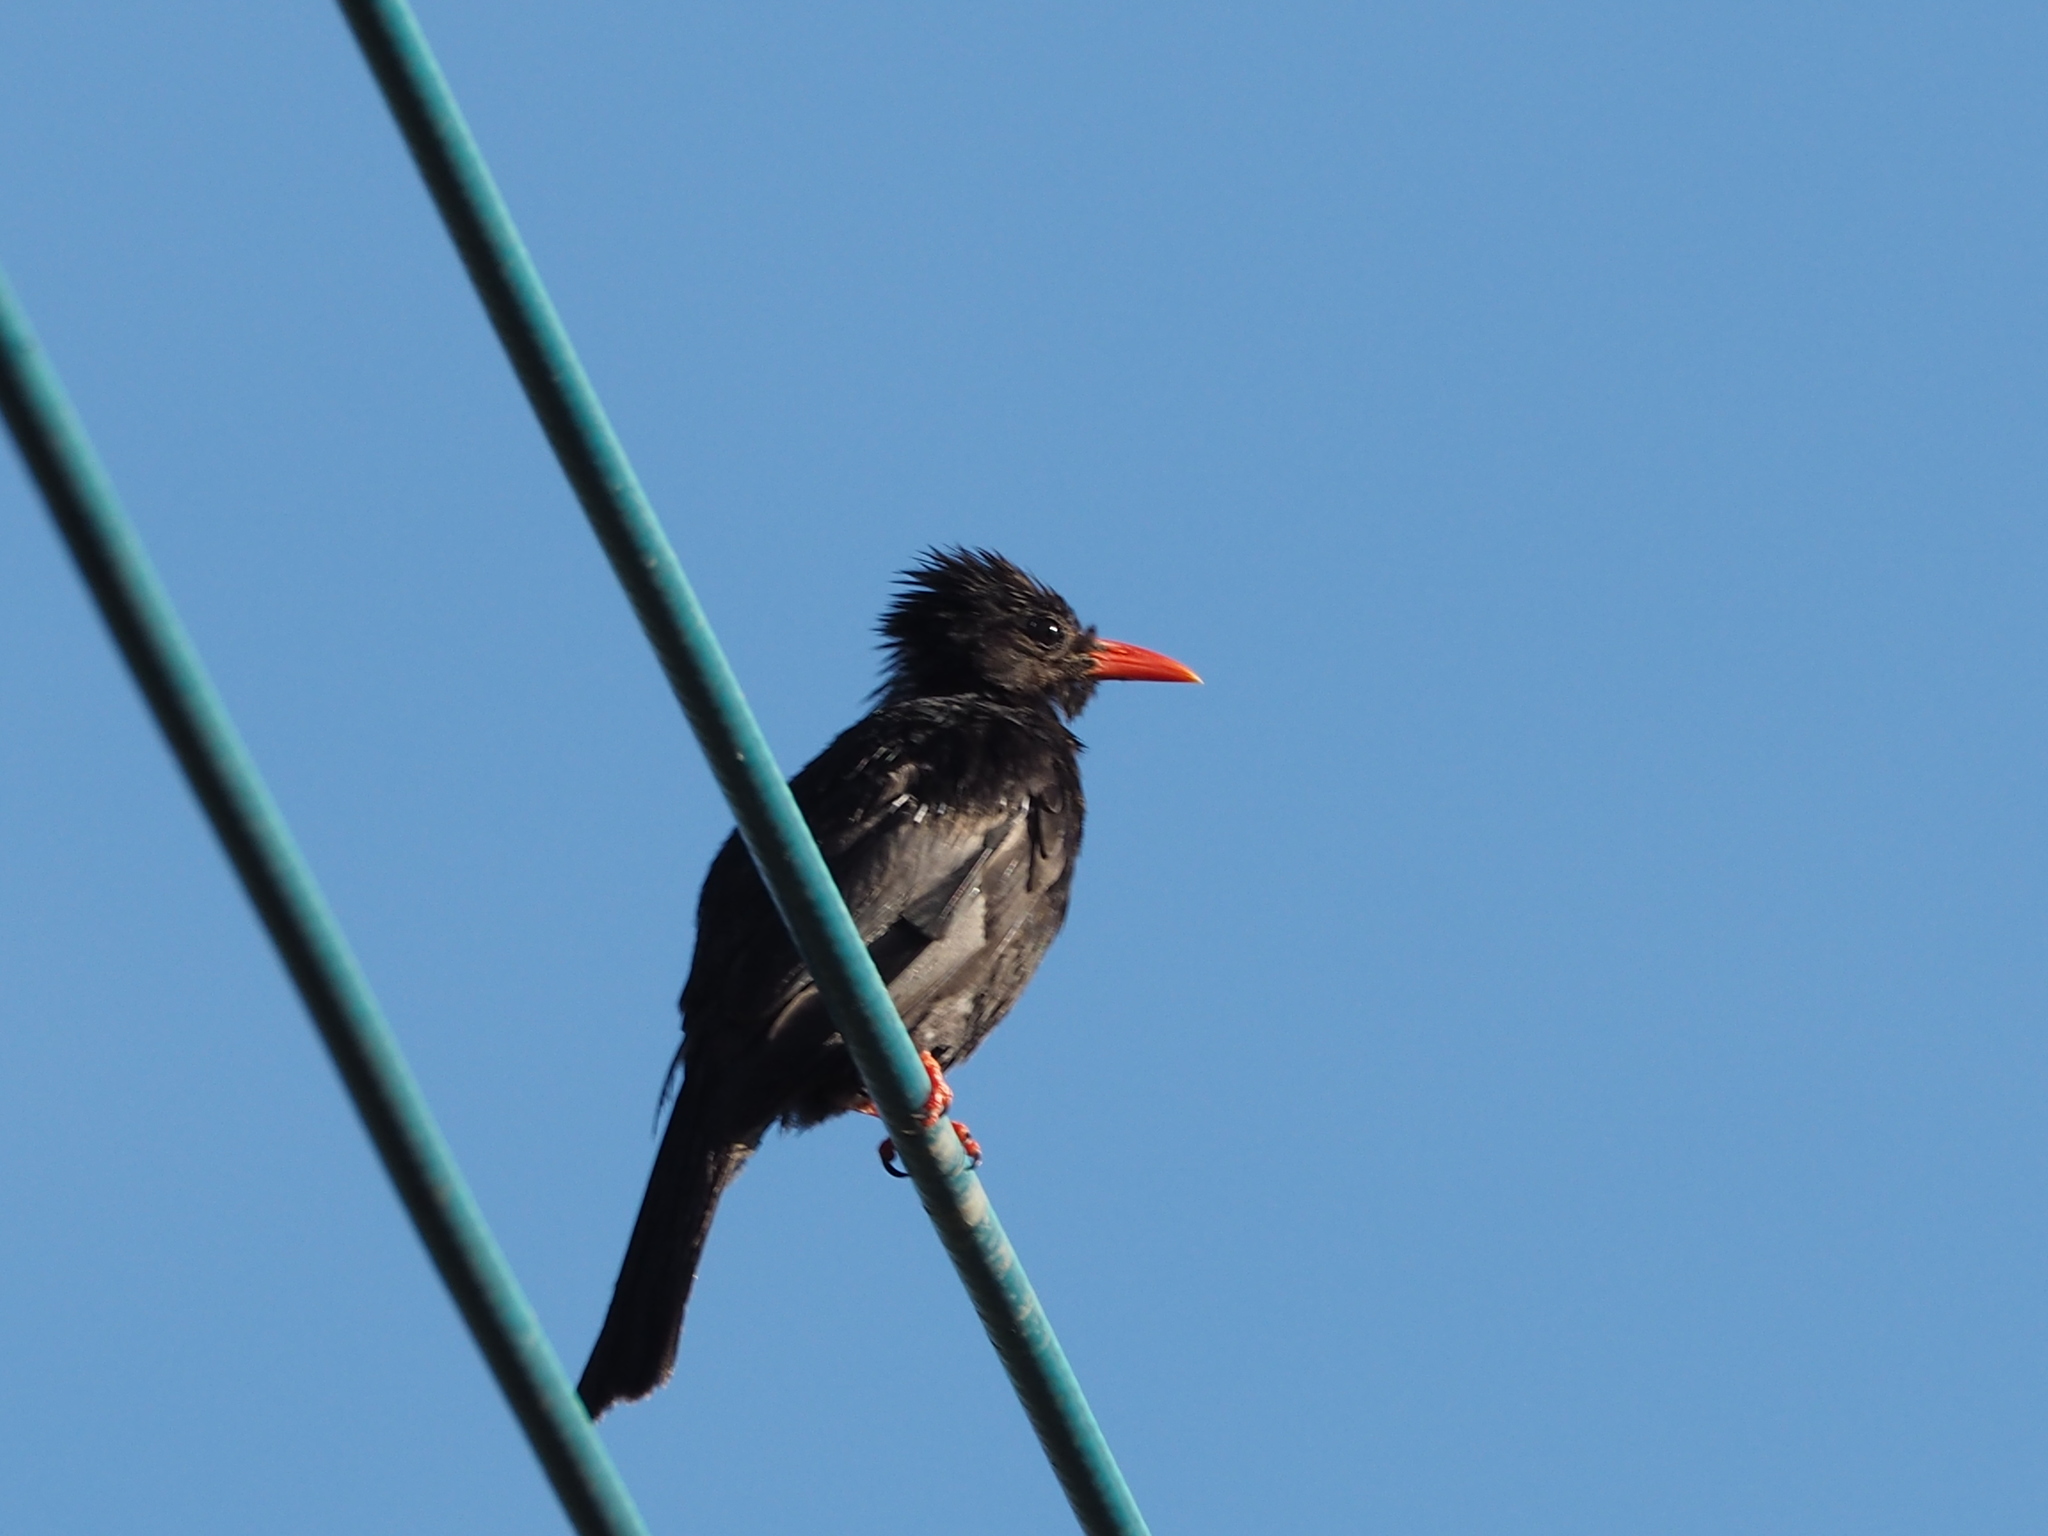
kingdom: Animalia
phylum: Chordata
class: Aves
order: Passeriformes
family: Pycnonotidae
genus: Hypsipetes
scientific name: Hypsipetes leucocephalus
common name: Black bulbul
